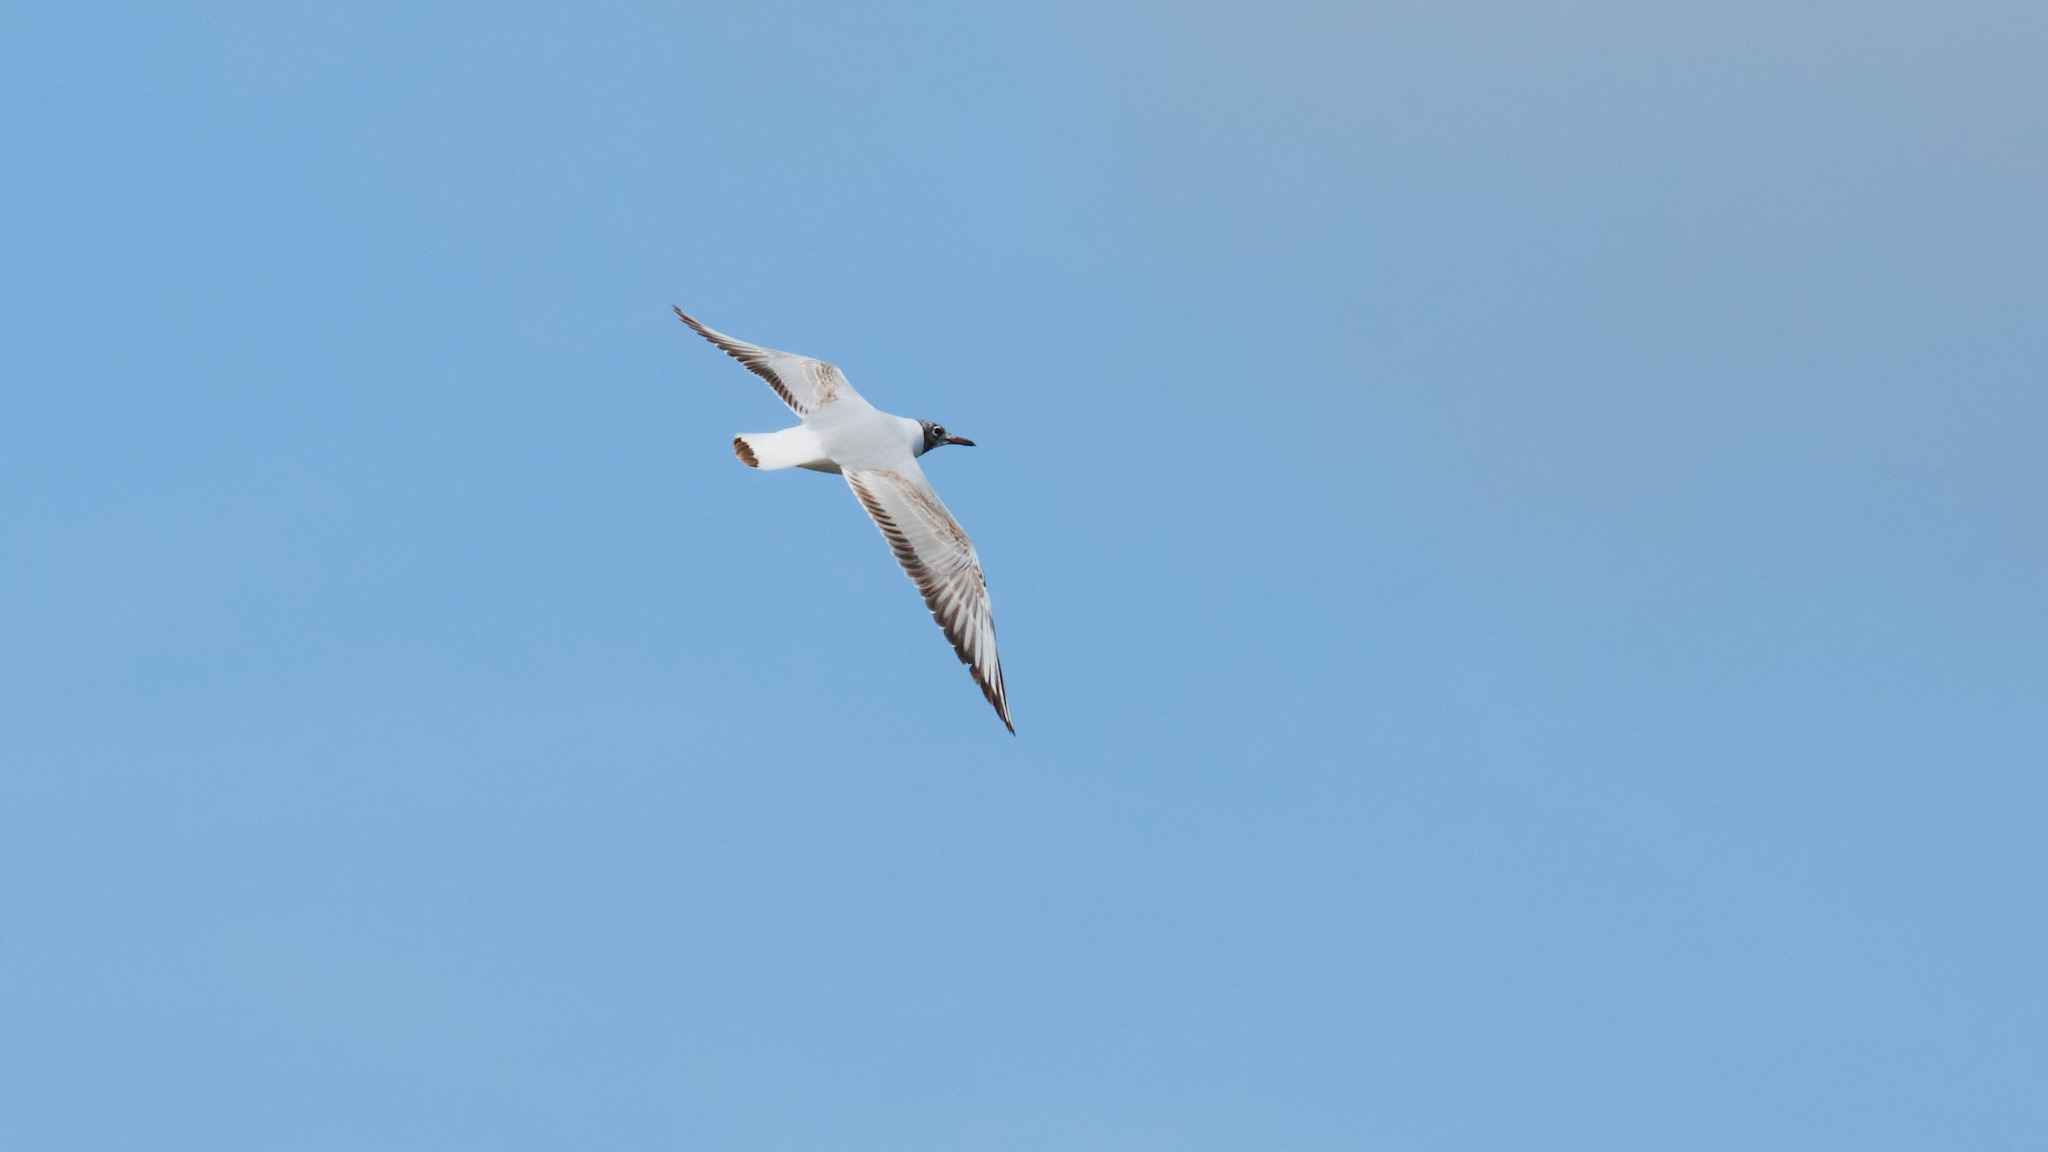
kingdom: Animalia
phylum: Chordata
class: Aves
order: Charadriiformes
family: Laridae
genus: Chroicocephalus
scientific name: Chroicocephalus ridibundus
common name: Black-headed gull
